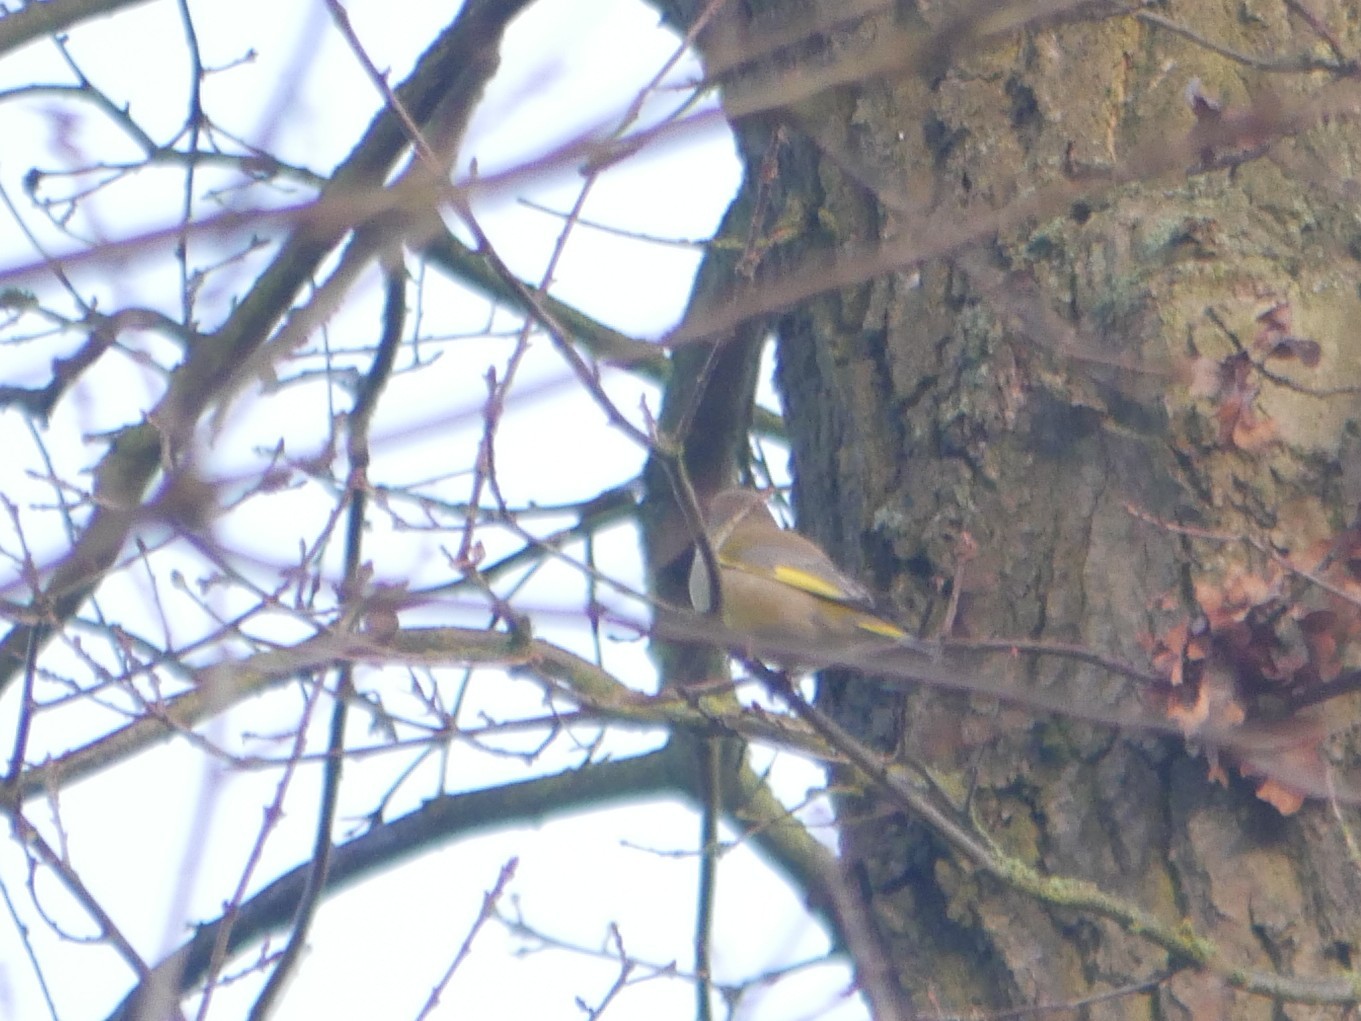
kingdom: Plantae
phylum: Tracheophyta
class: Liliopsida
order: Poales
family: Poaceae
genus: Chloris
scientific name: Chloris chloris
